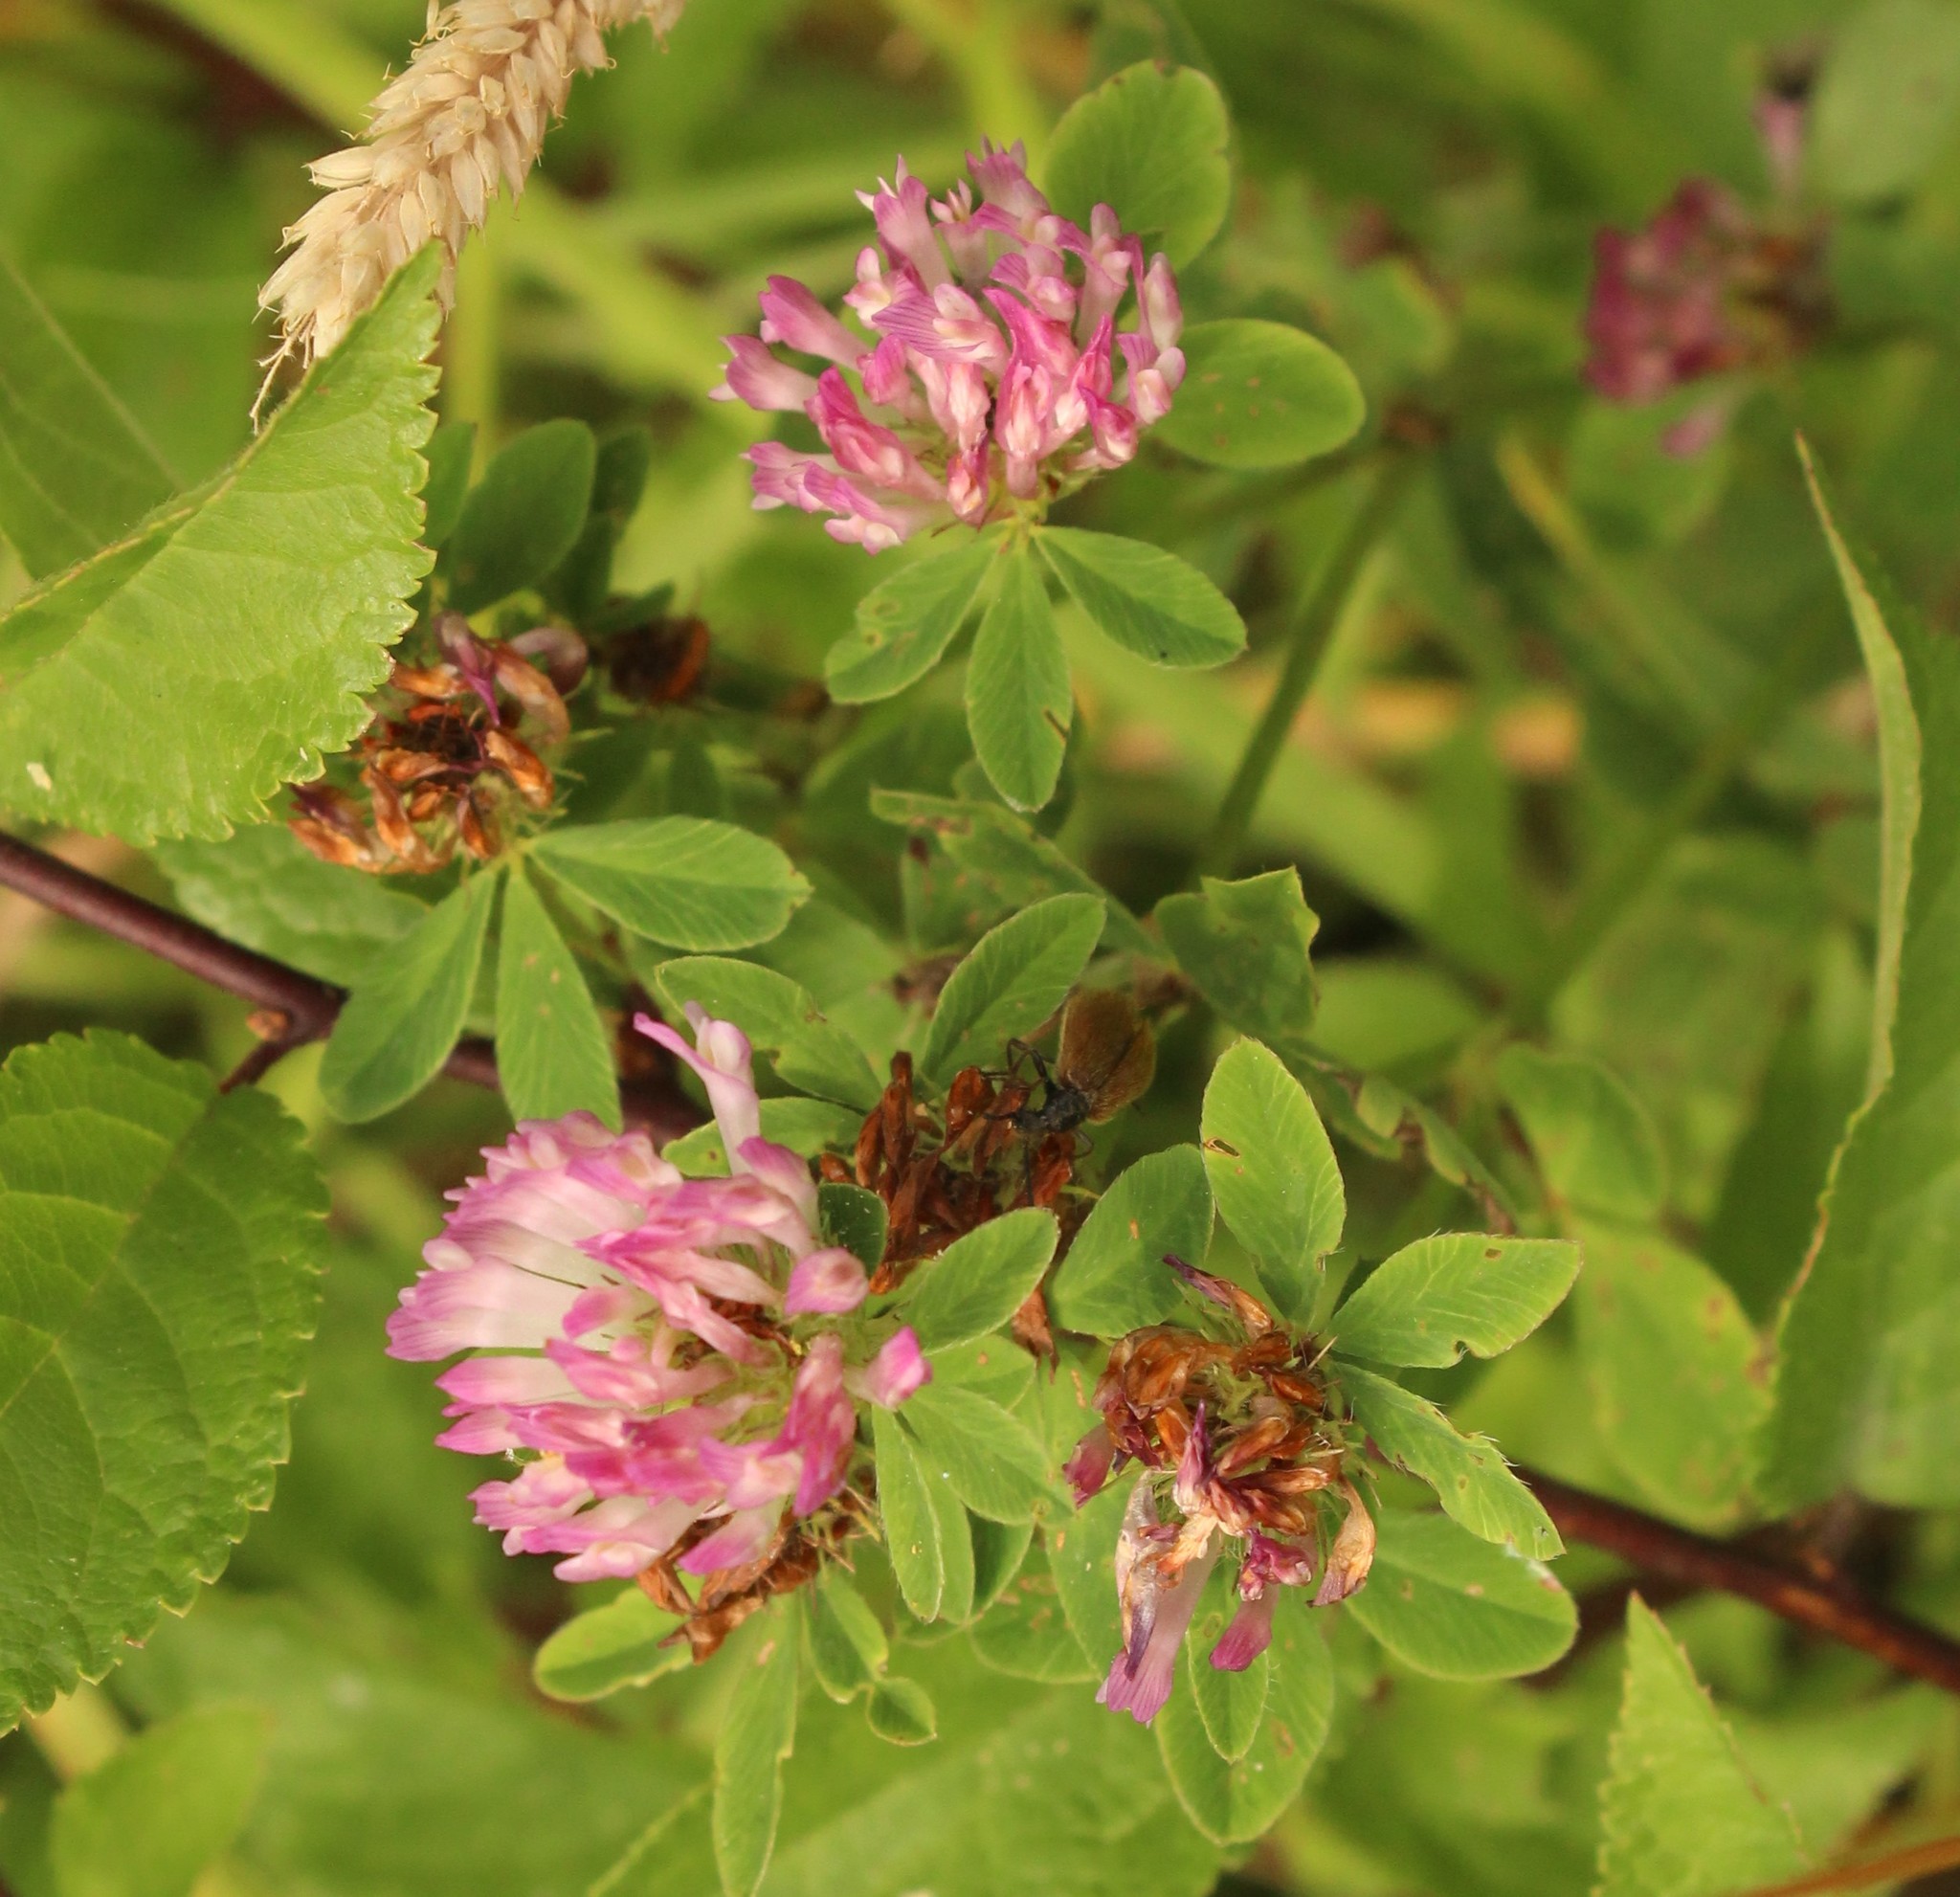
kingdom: Plantae
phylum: Tracheophyta
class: Magnoliopsida
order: Fabales
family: Fabaceae
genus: Trifolium
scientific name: Trifolium pratense
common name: Red clover
